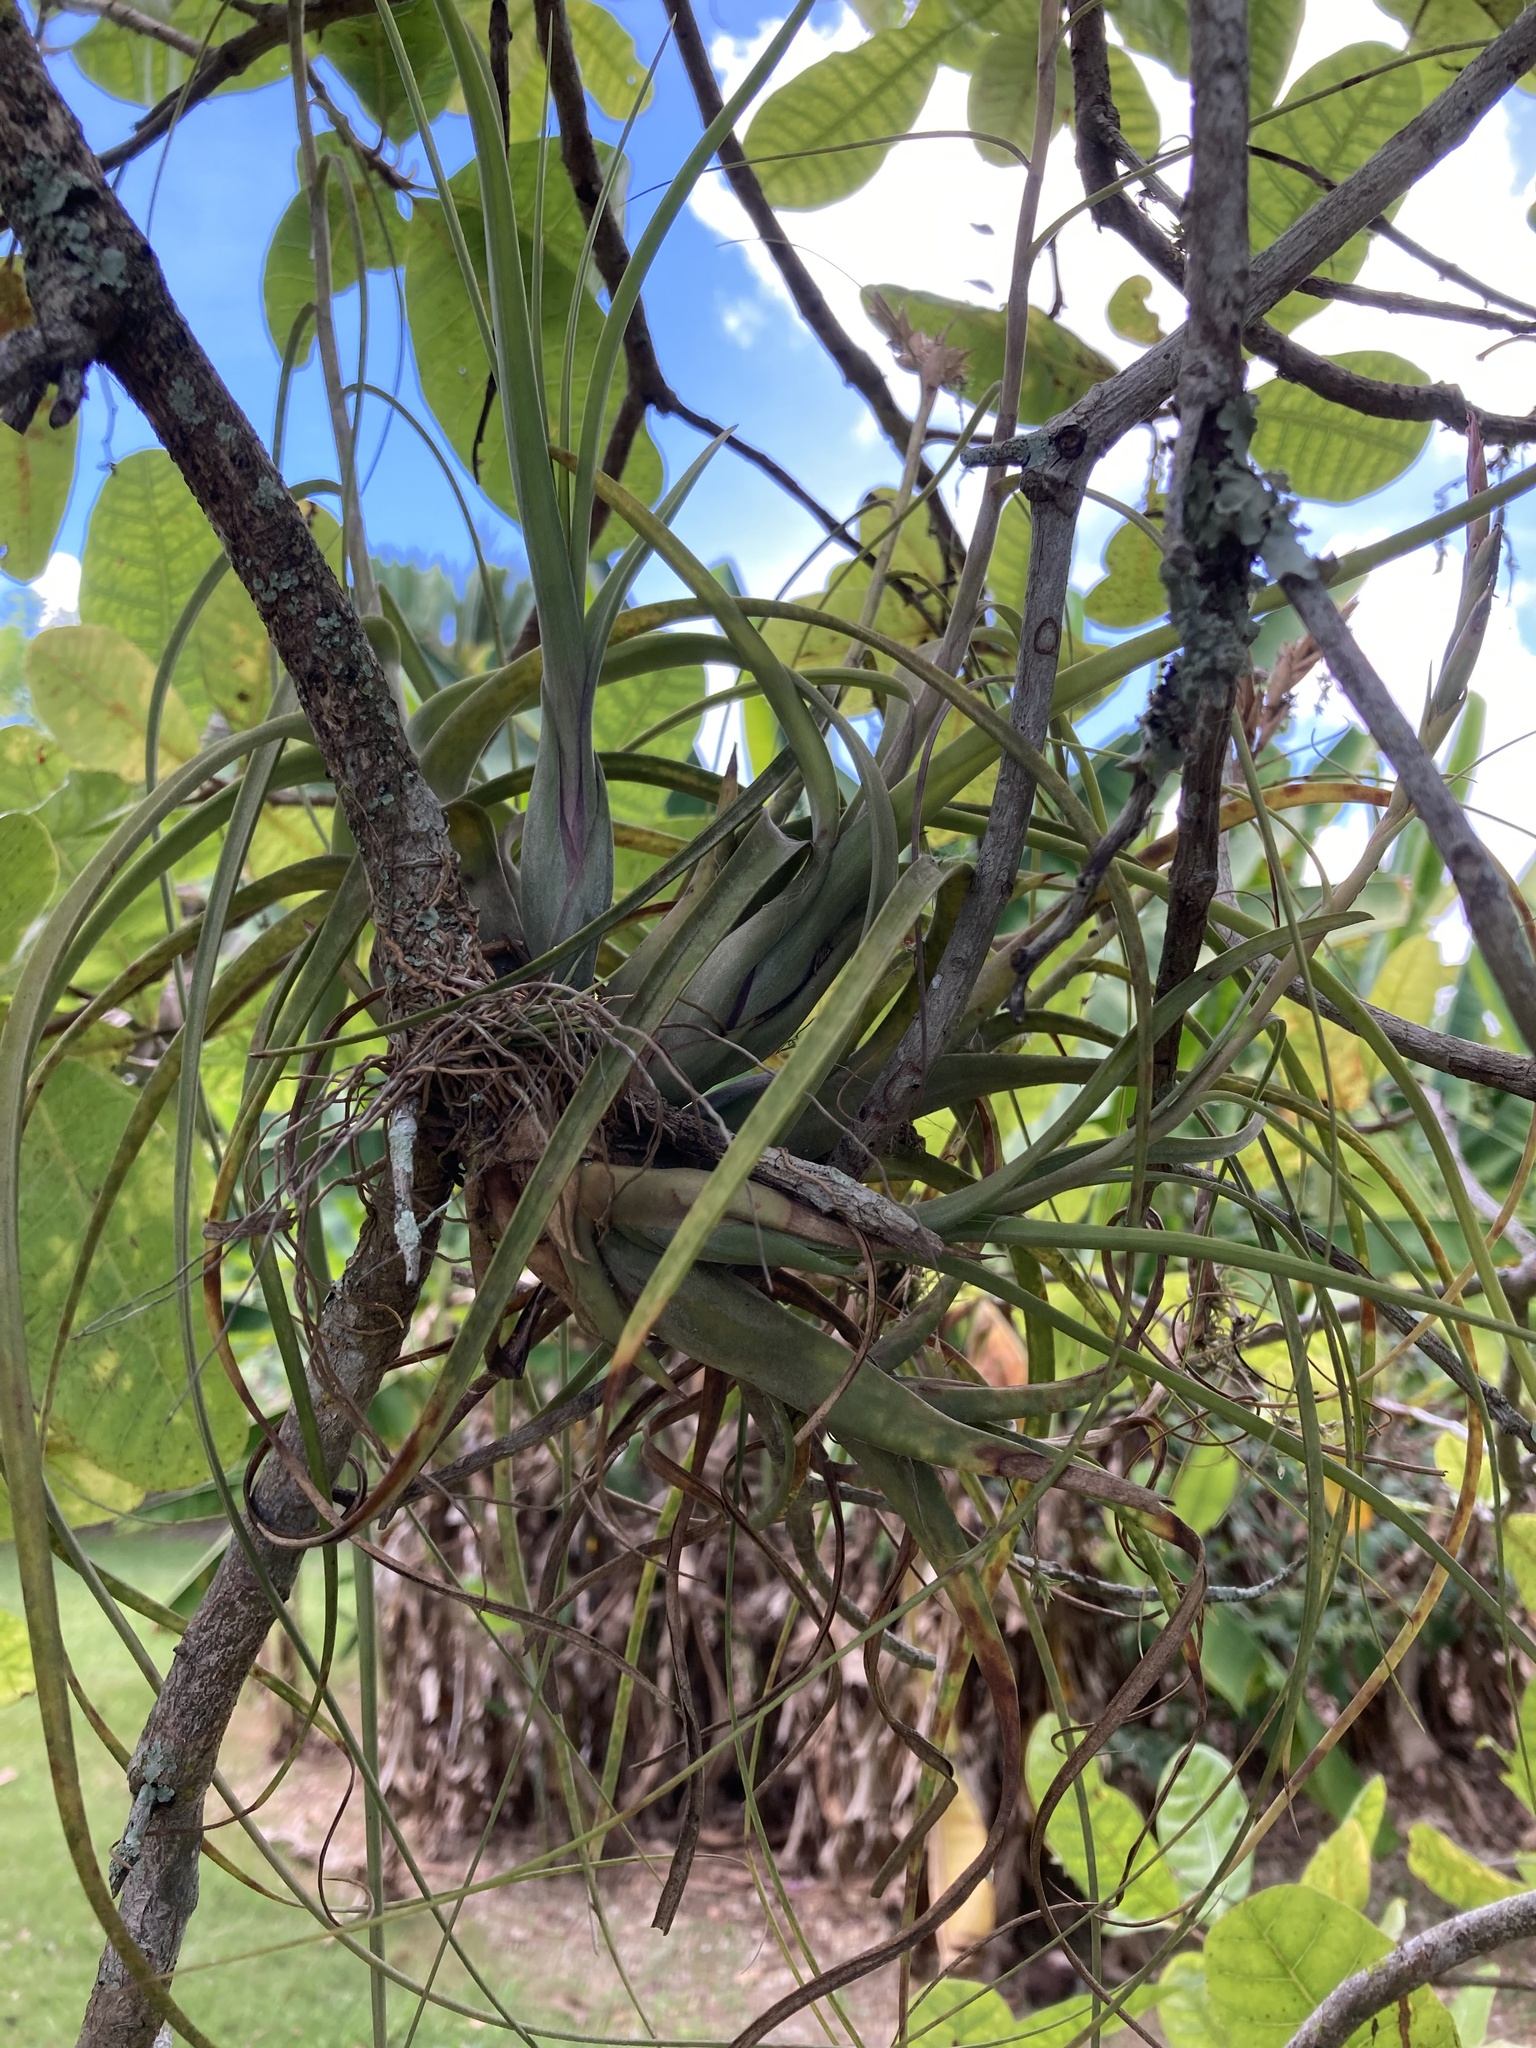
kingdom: Plantae
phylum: Tracheophyta
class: Liliopsida
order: Poales
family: Bromeliaceae
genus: Tillandsia
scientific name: Tillandsia balbisiana
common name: Northern needleleaf
